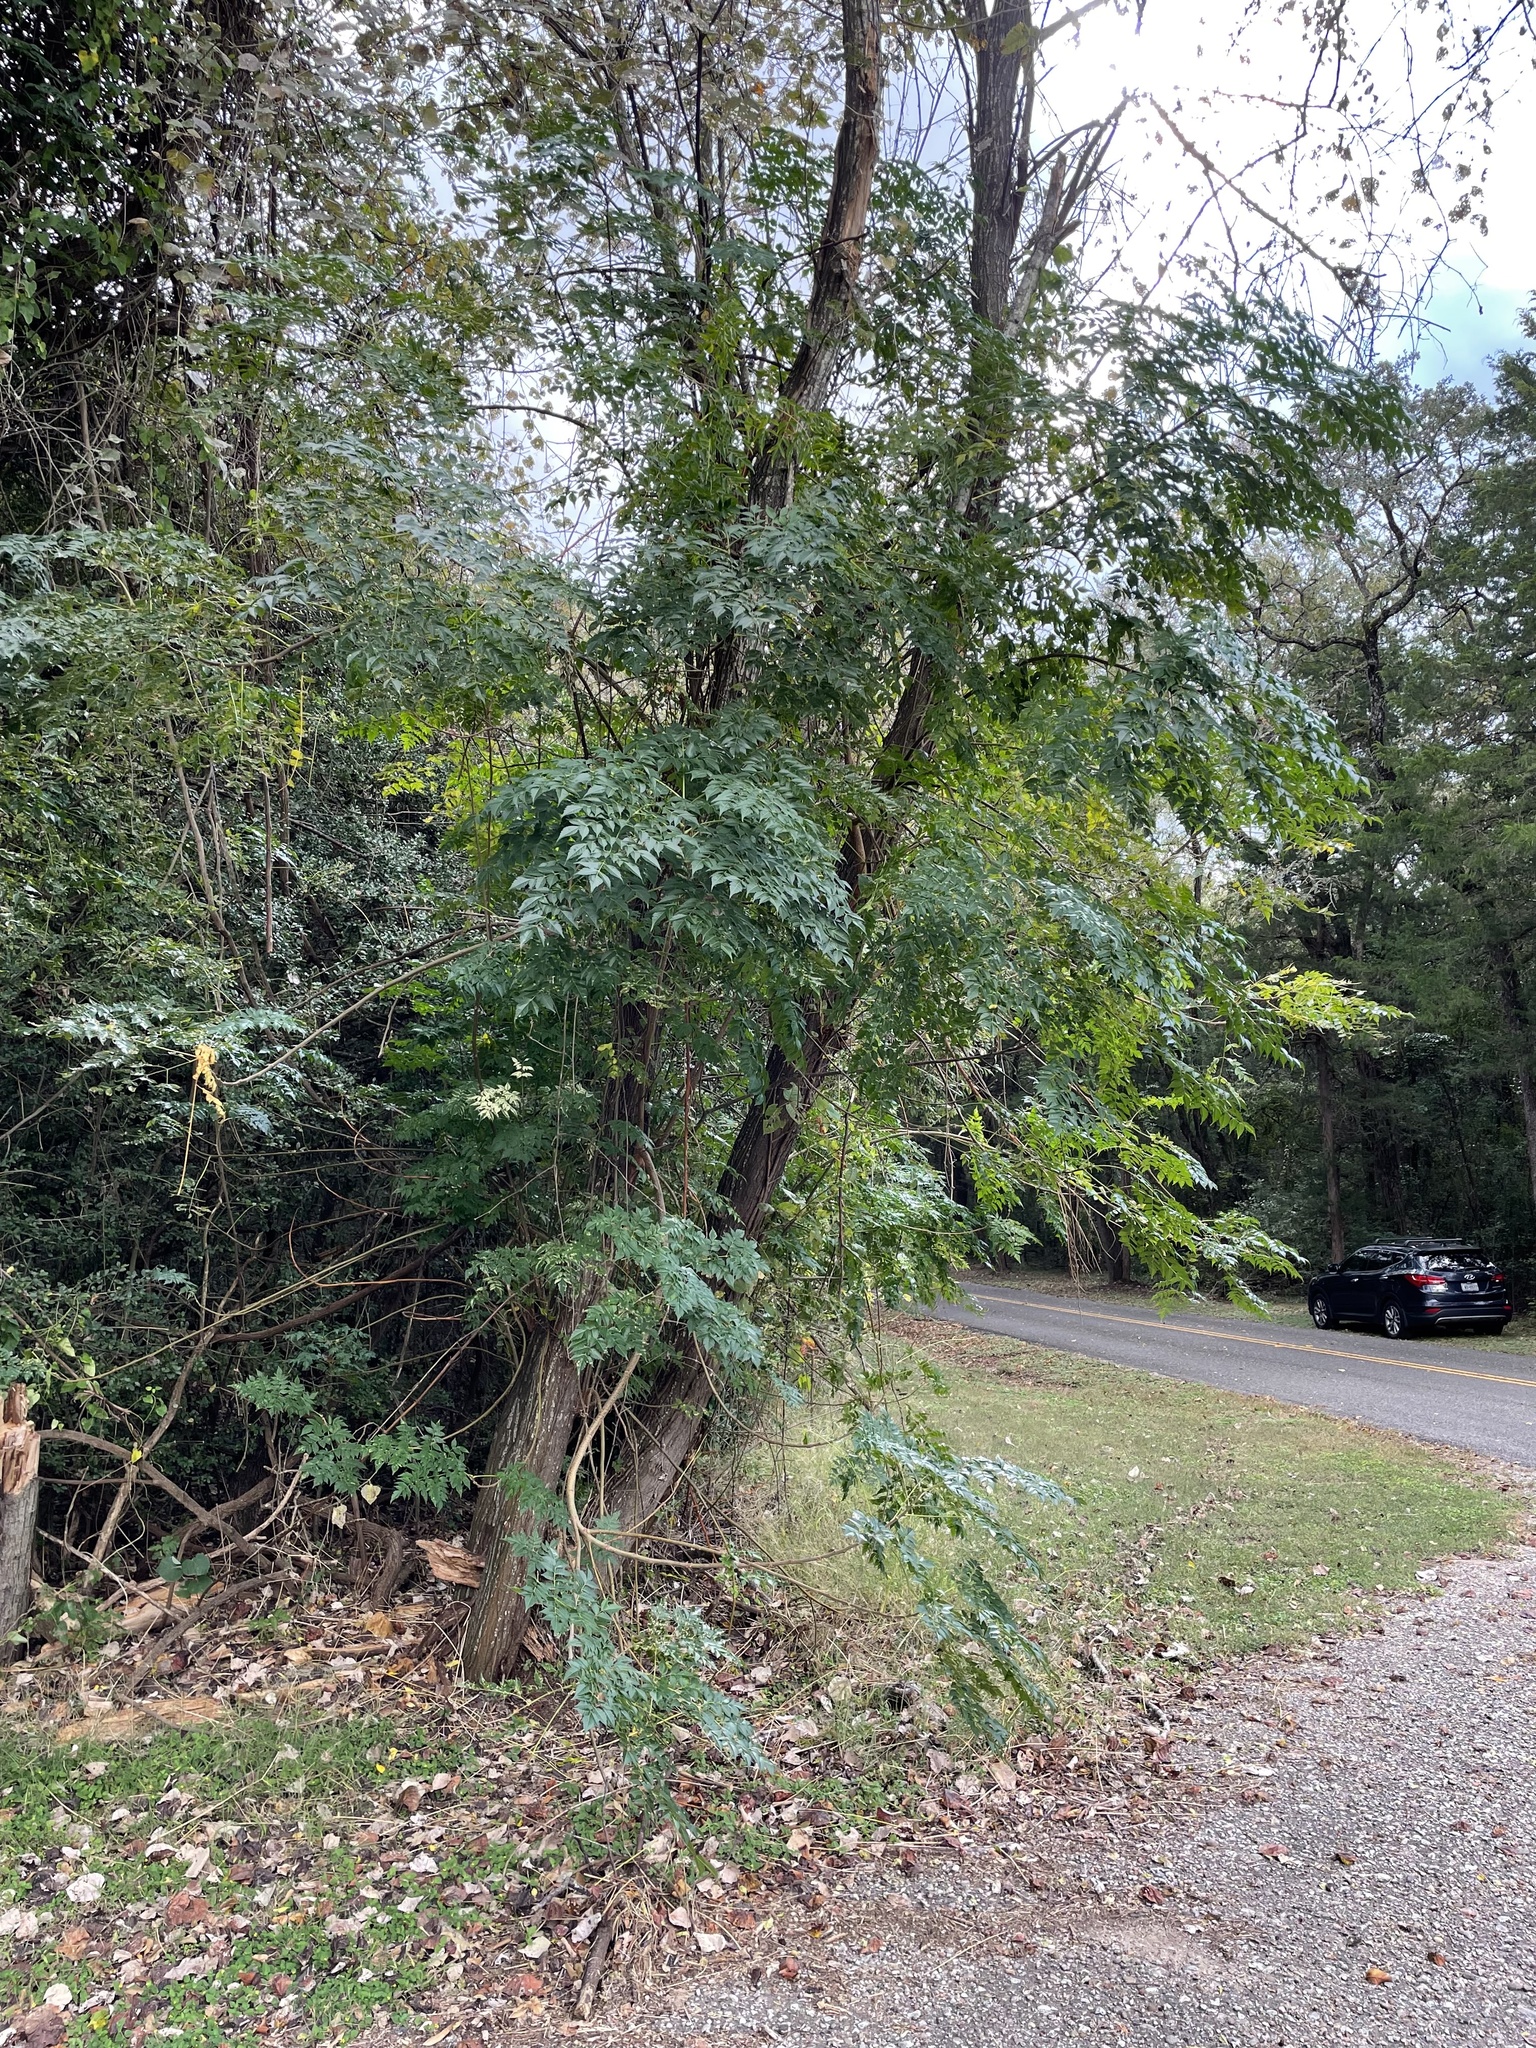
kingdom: Plantae
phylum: Tracheophyta
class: Magnoliopsida
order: Sapindales
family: Meliaceae
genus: Melia
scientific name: Melia azedarach
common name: Chinaberrytree
